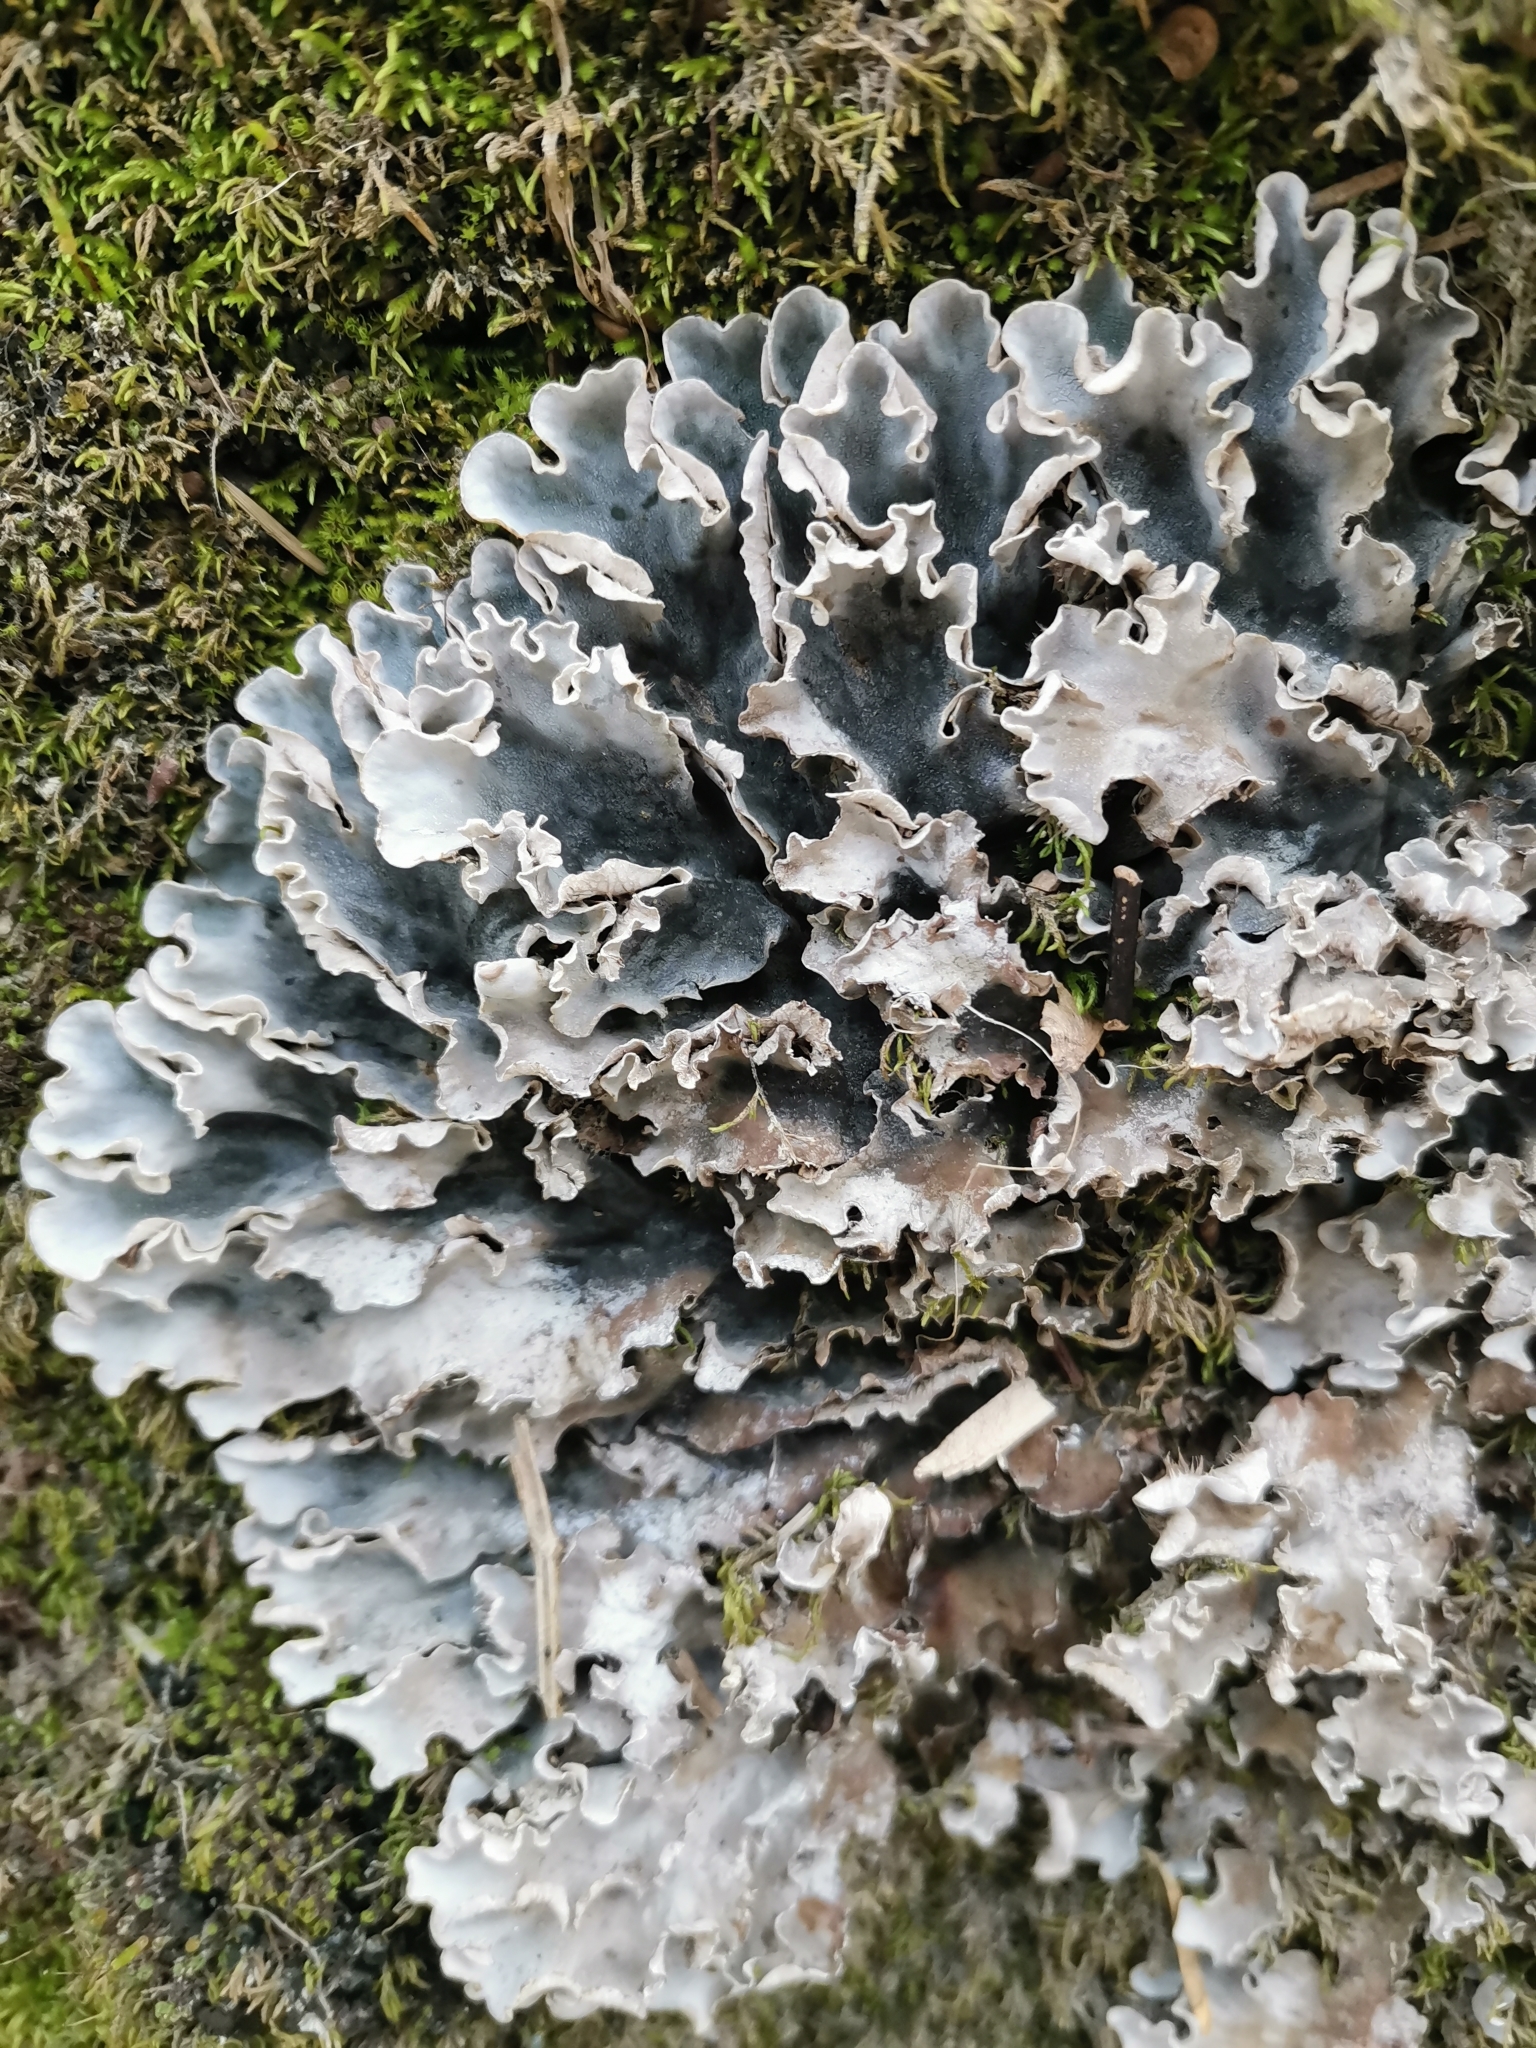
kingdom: Fungi
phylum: Ascomycota
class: Lecanoromycetes
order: Peltigerales
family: Peltigeraceae
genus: Peltigera
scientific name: Peltigera
